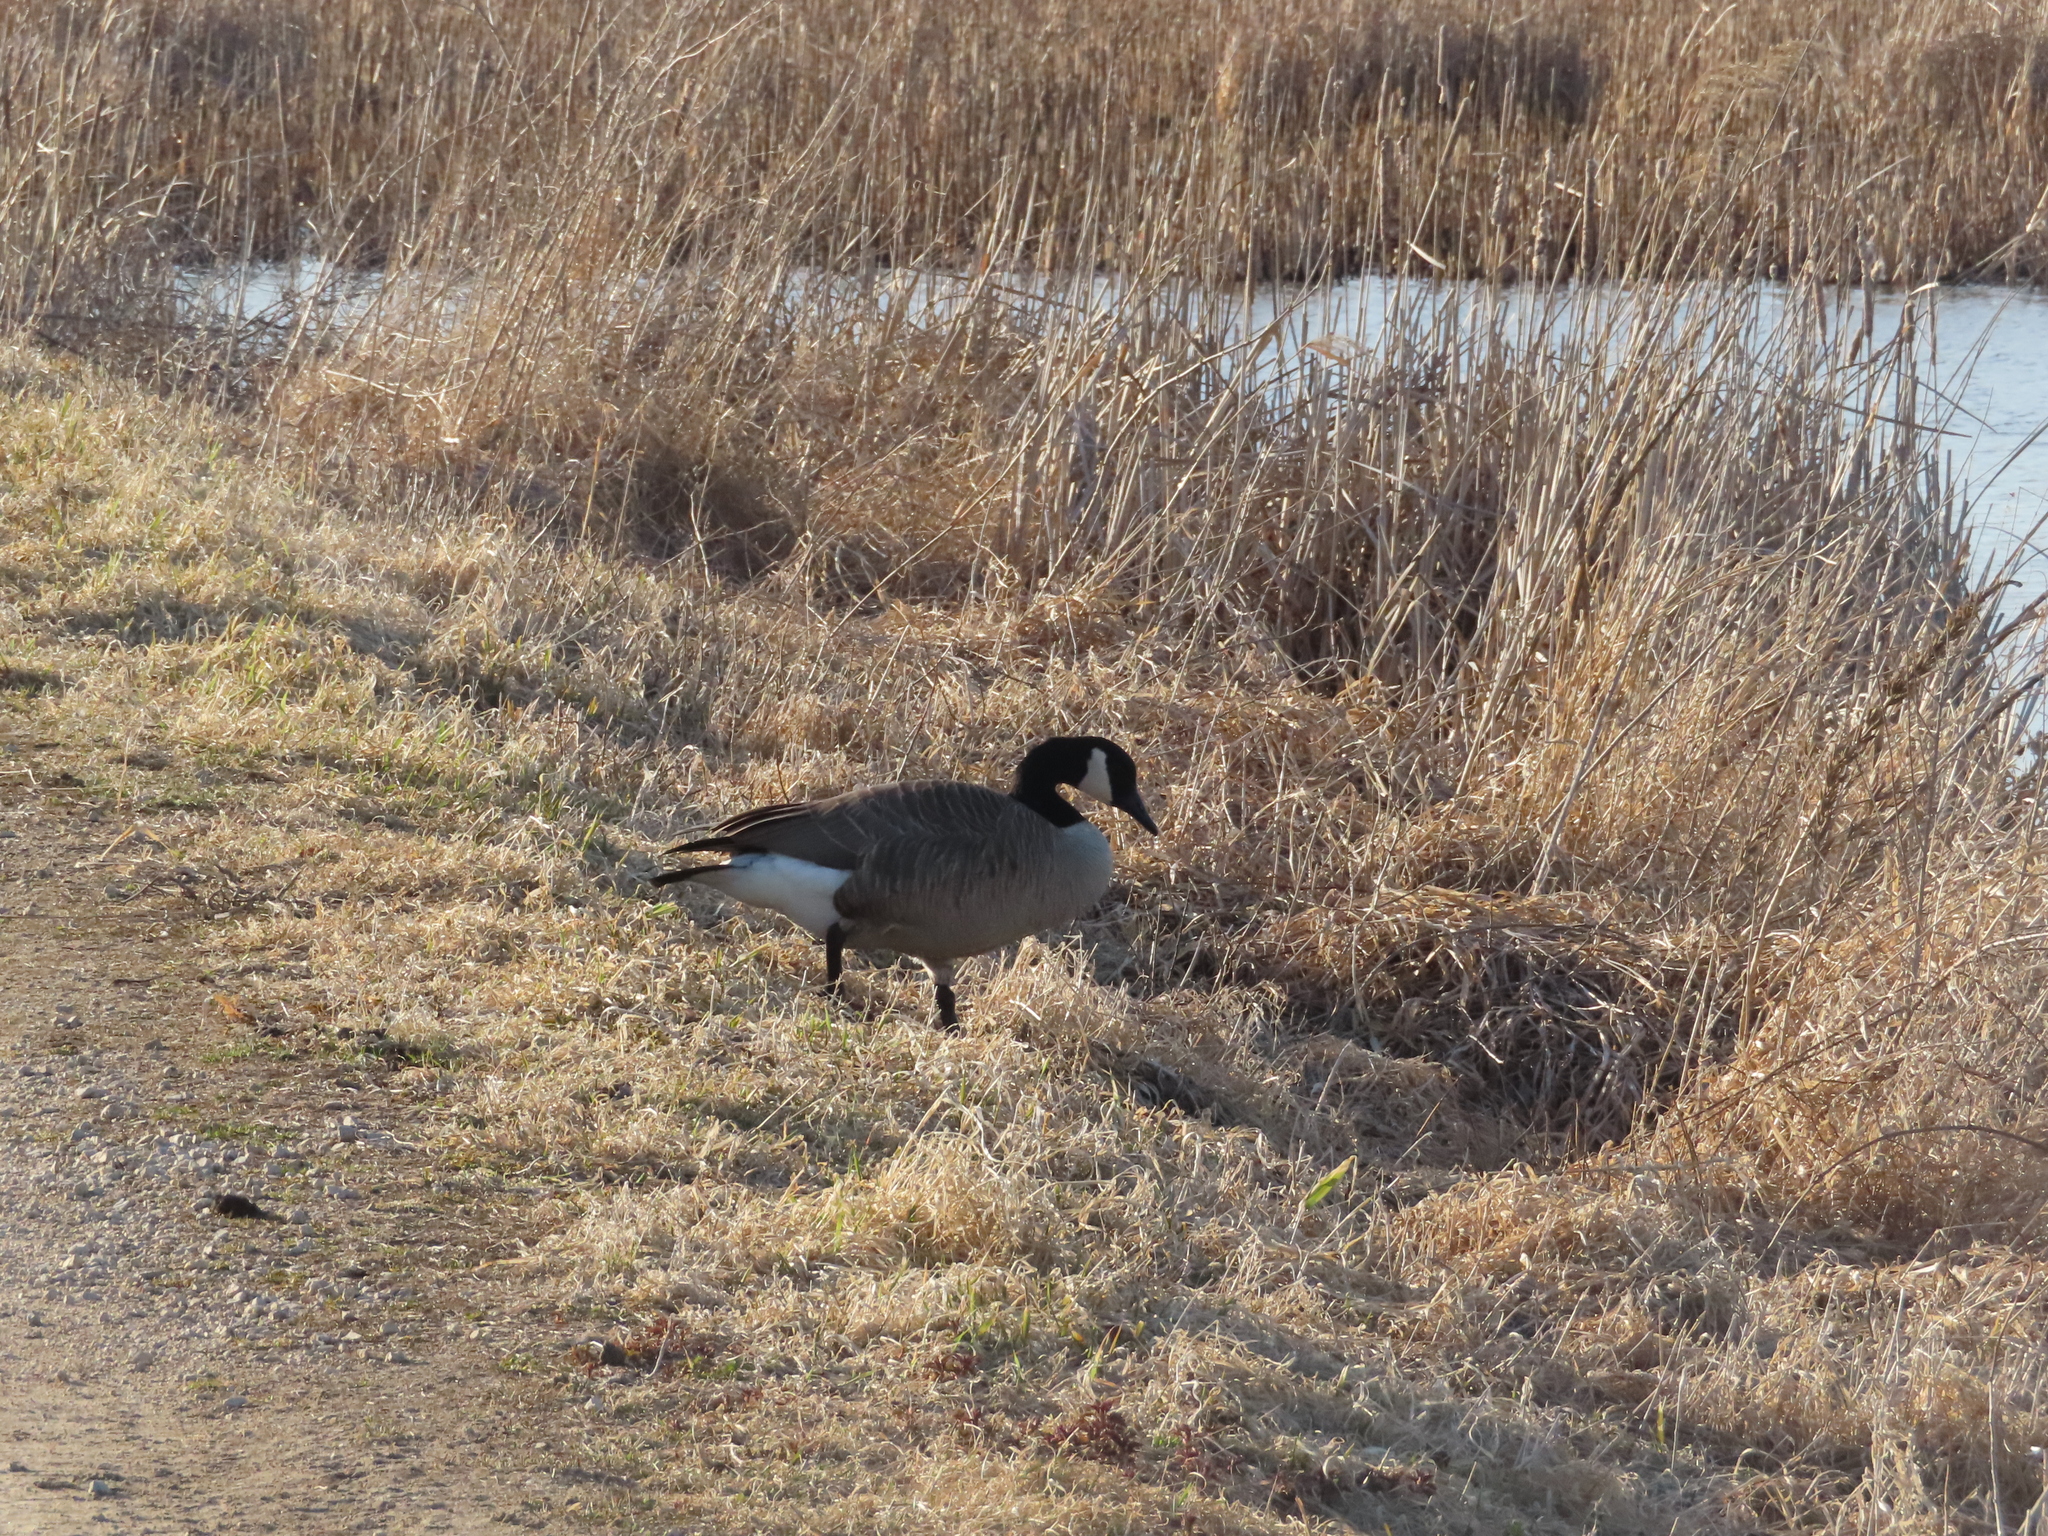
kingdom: Animalia
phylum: Chordata
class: Aves
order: Anseriformes
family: Anatidae
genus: Branta
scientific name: Branta canadensis
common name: Canada goose
